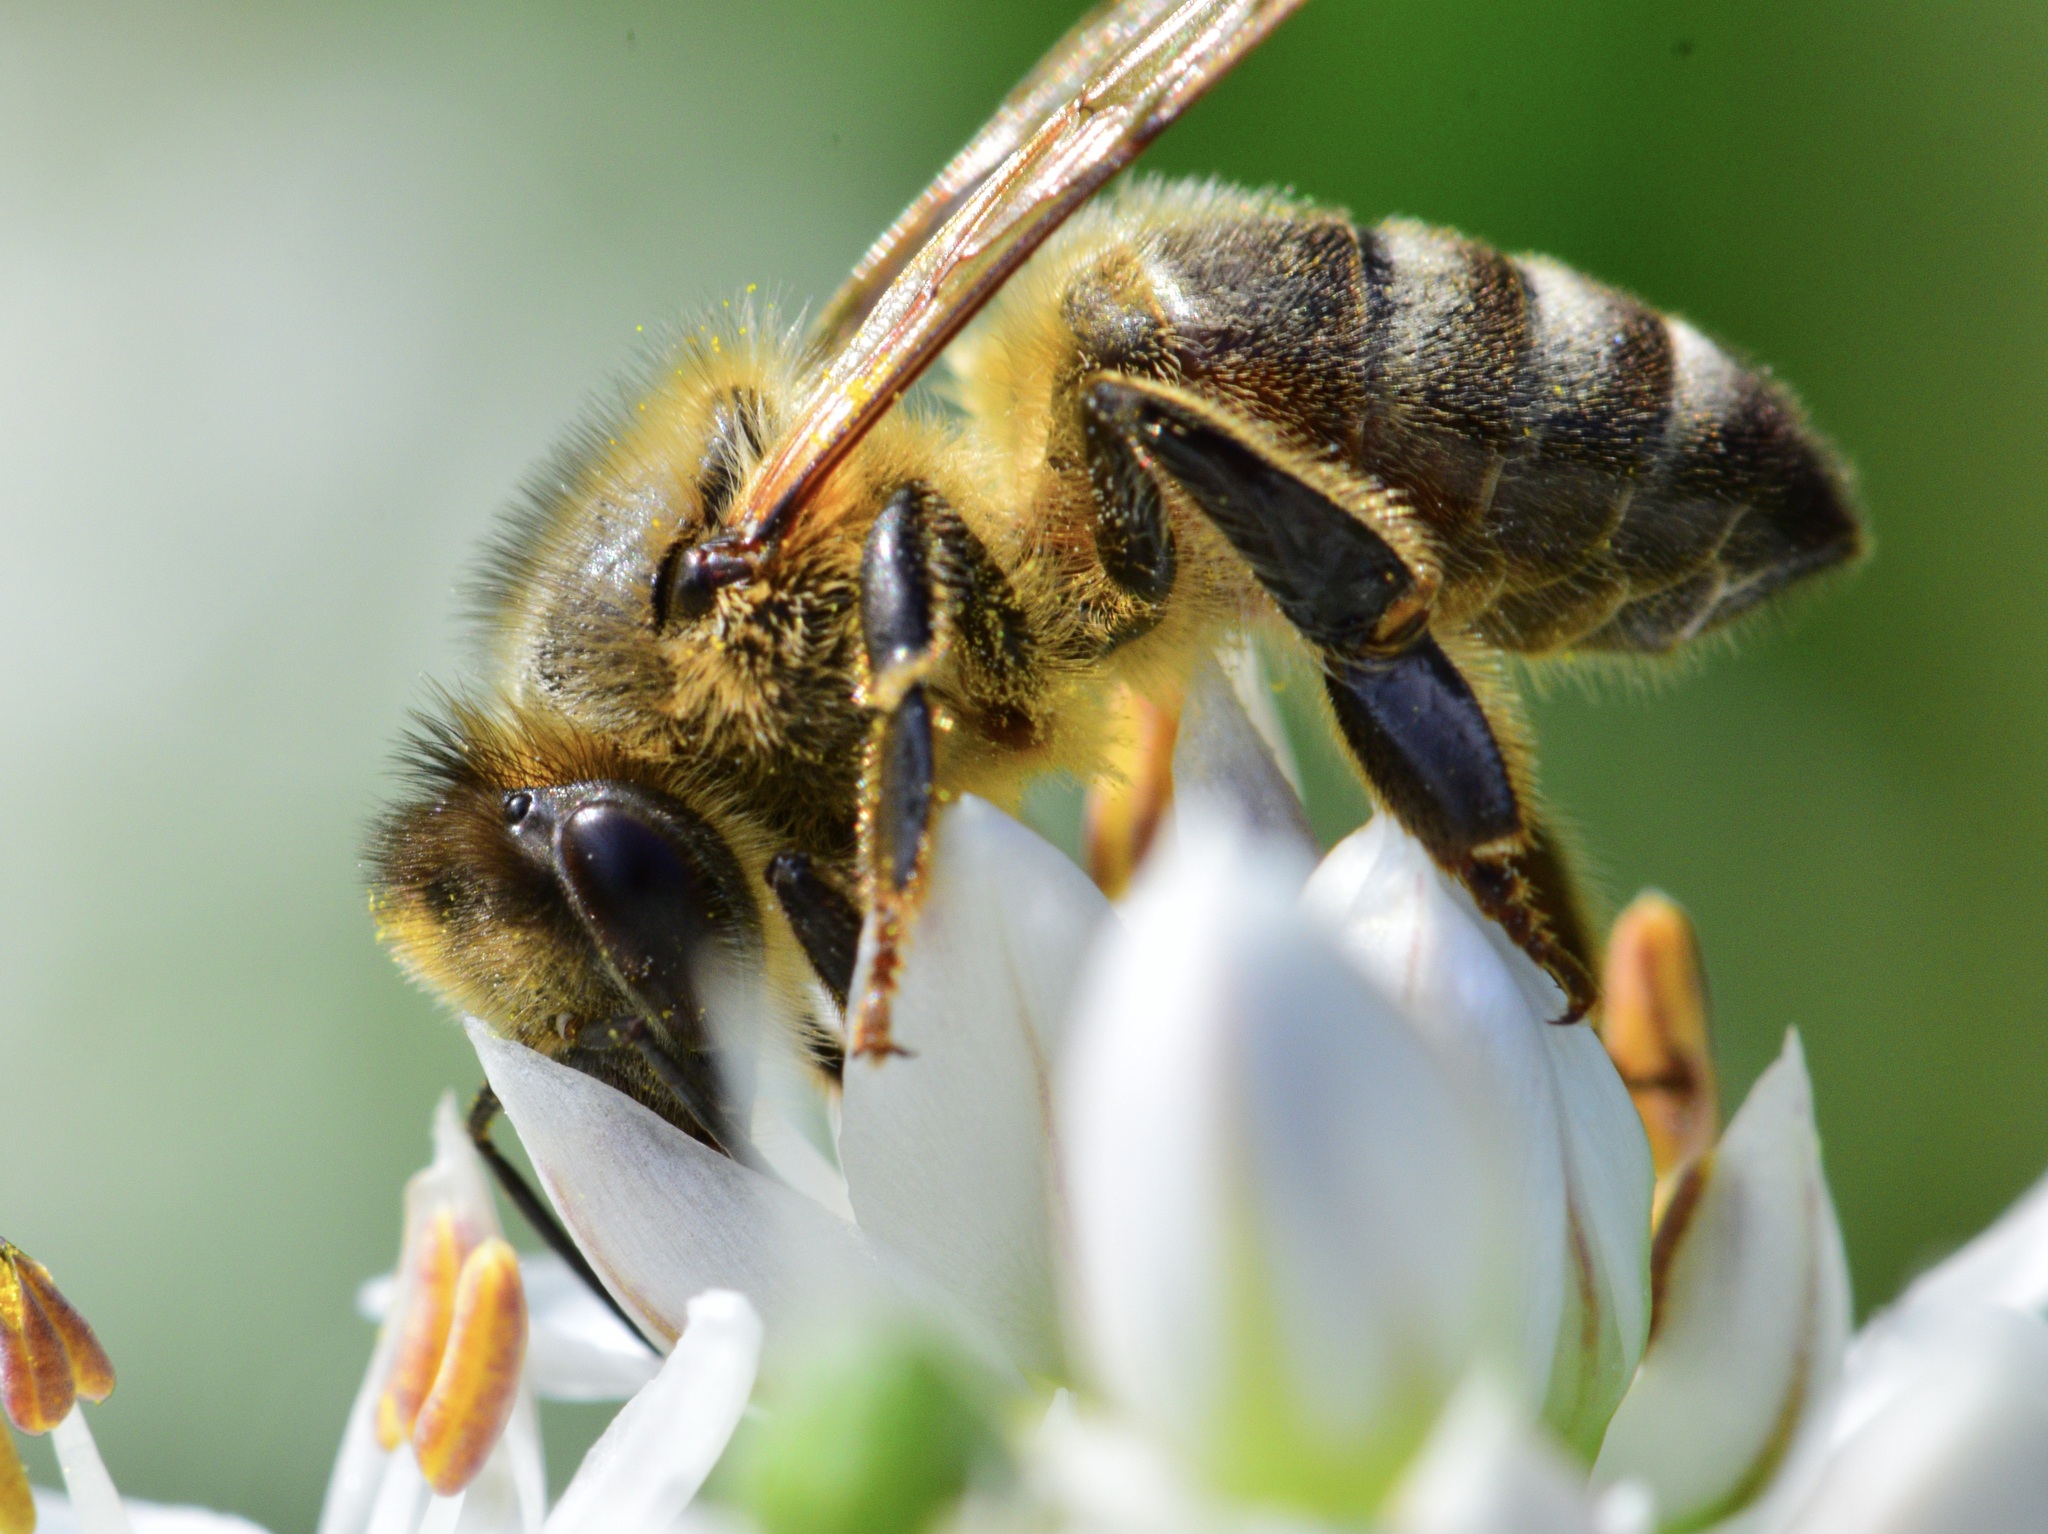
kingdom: Animalia
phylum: Arthropoda
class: Insecta
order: Hymenoptera
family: Apidae
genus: Apis
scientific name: Apis mellifera
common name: Honey bee
